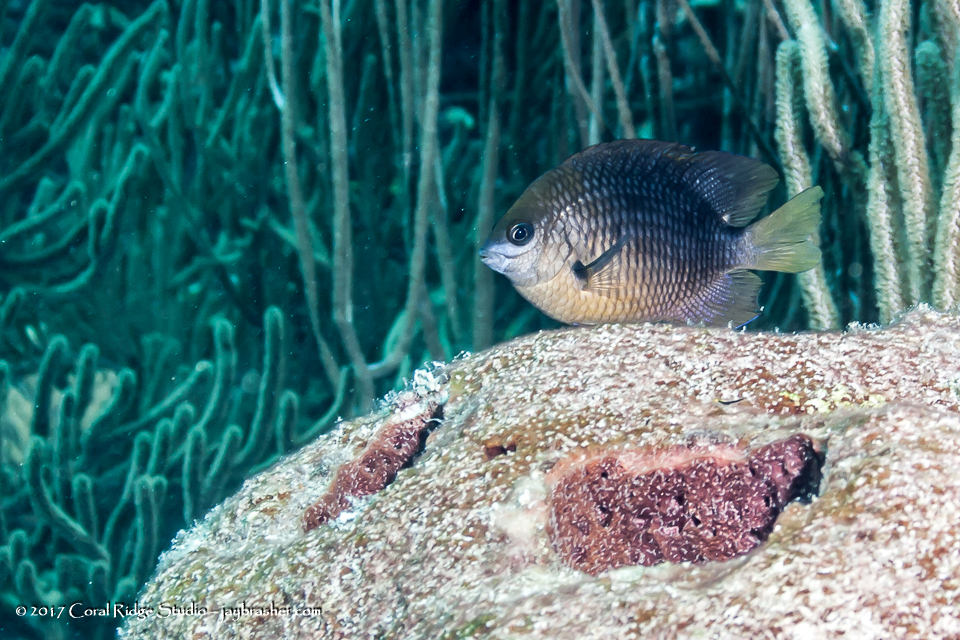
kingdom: Animalia
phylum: Chordata
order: Perciformes
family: Pomacentridae
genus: Stegastes
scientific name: Stegastes planifrons
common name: Threespot damselfish
